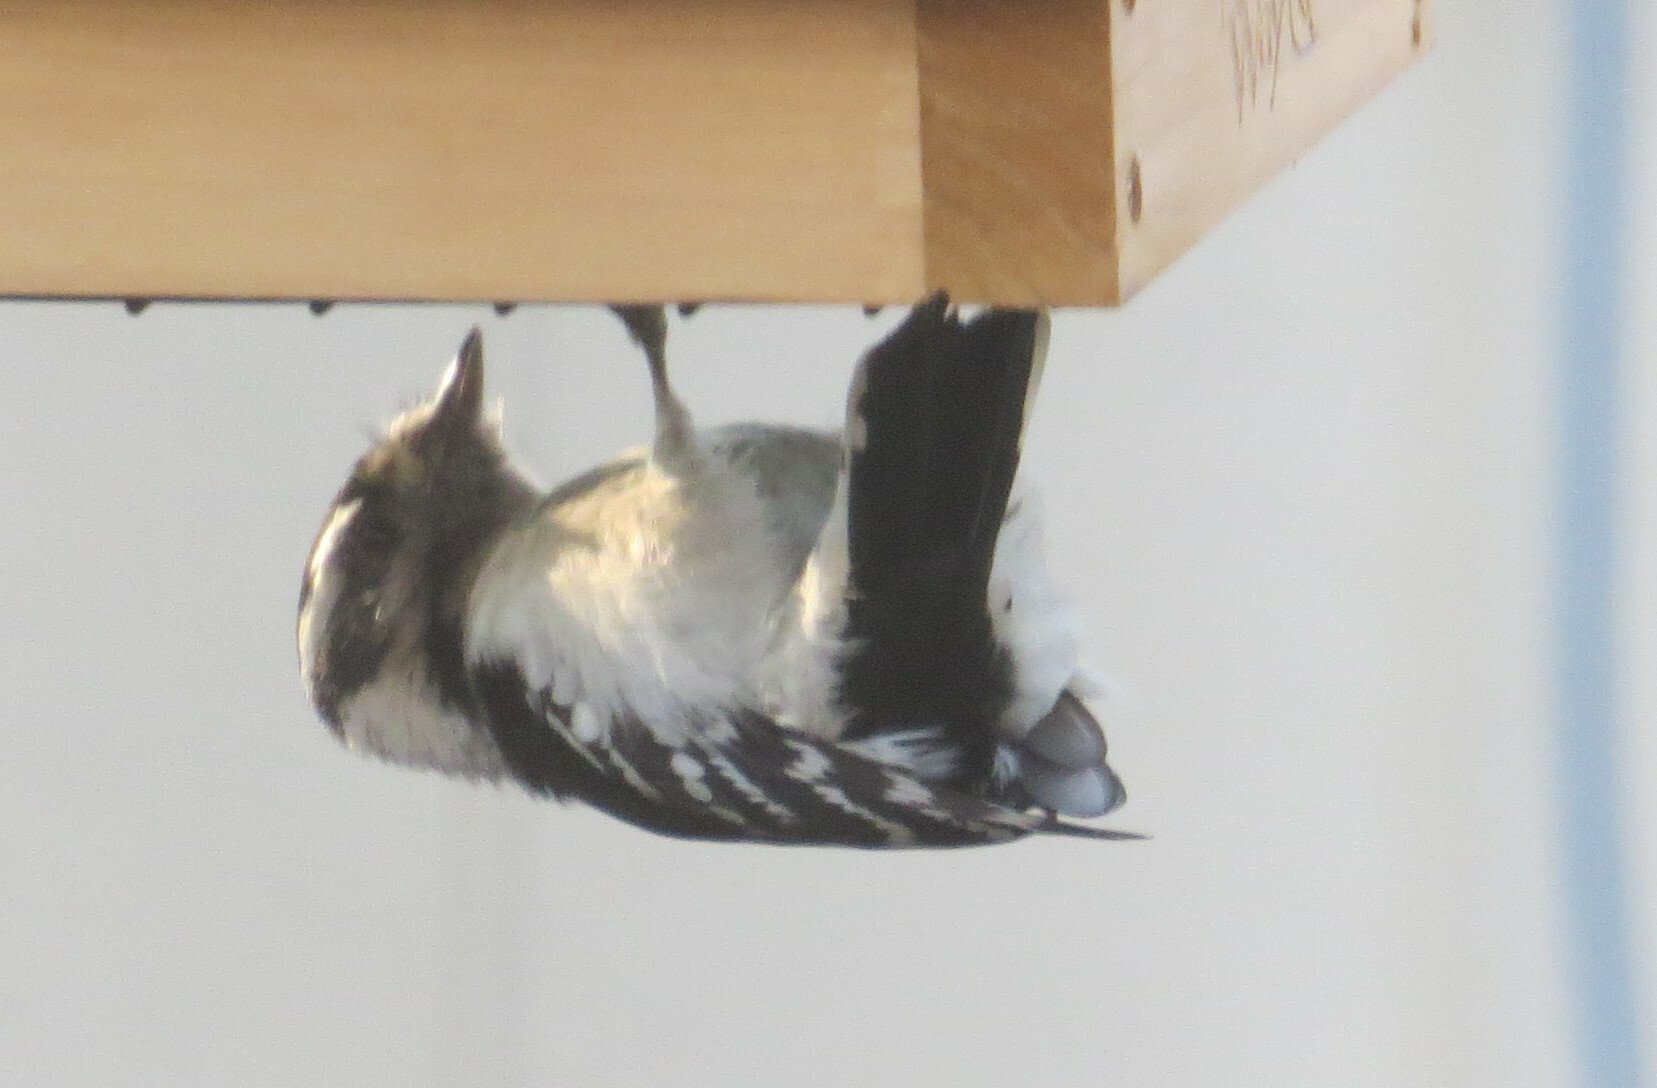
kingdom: Animalia
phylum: Chordata
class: Aves
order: Piciformes
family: Picidae
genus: Dryobates
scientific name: Dryobates pubescens
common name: Downy woodpecker
